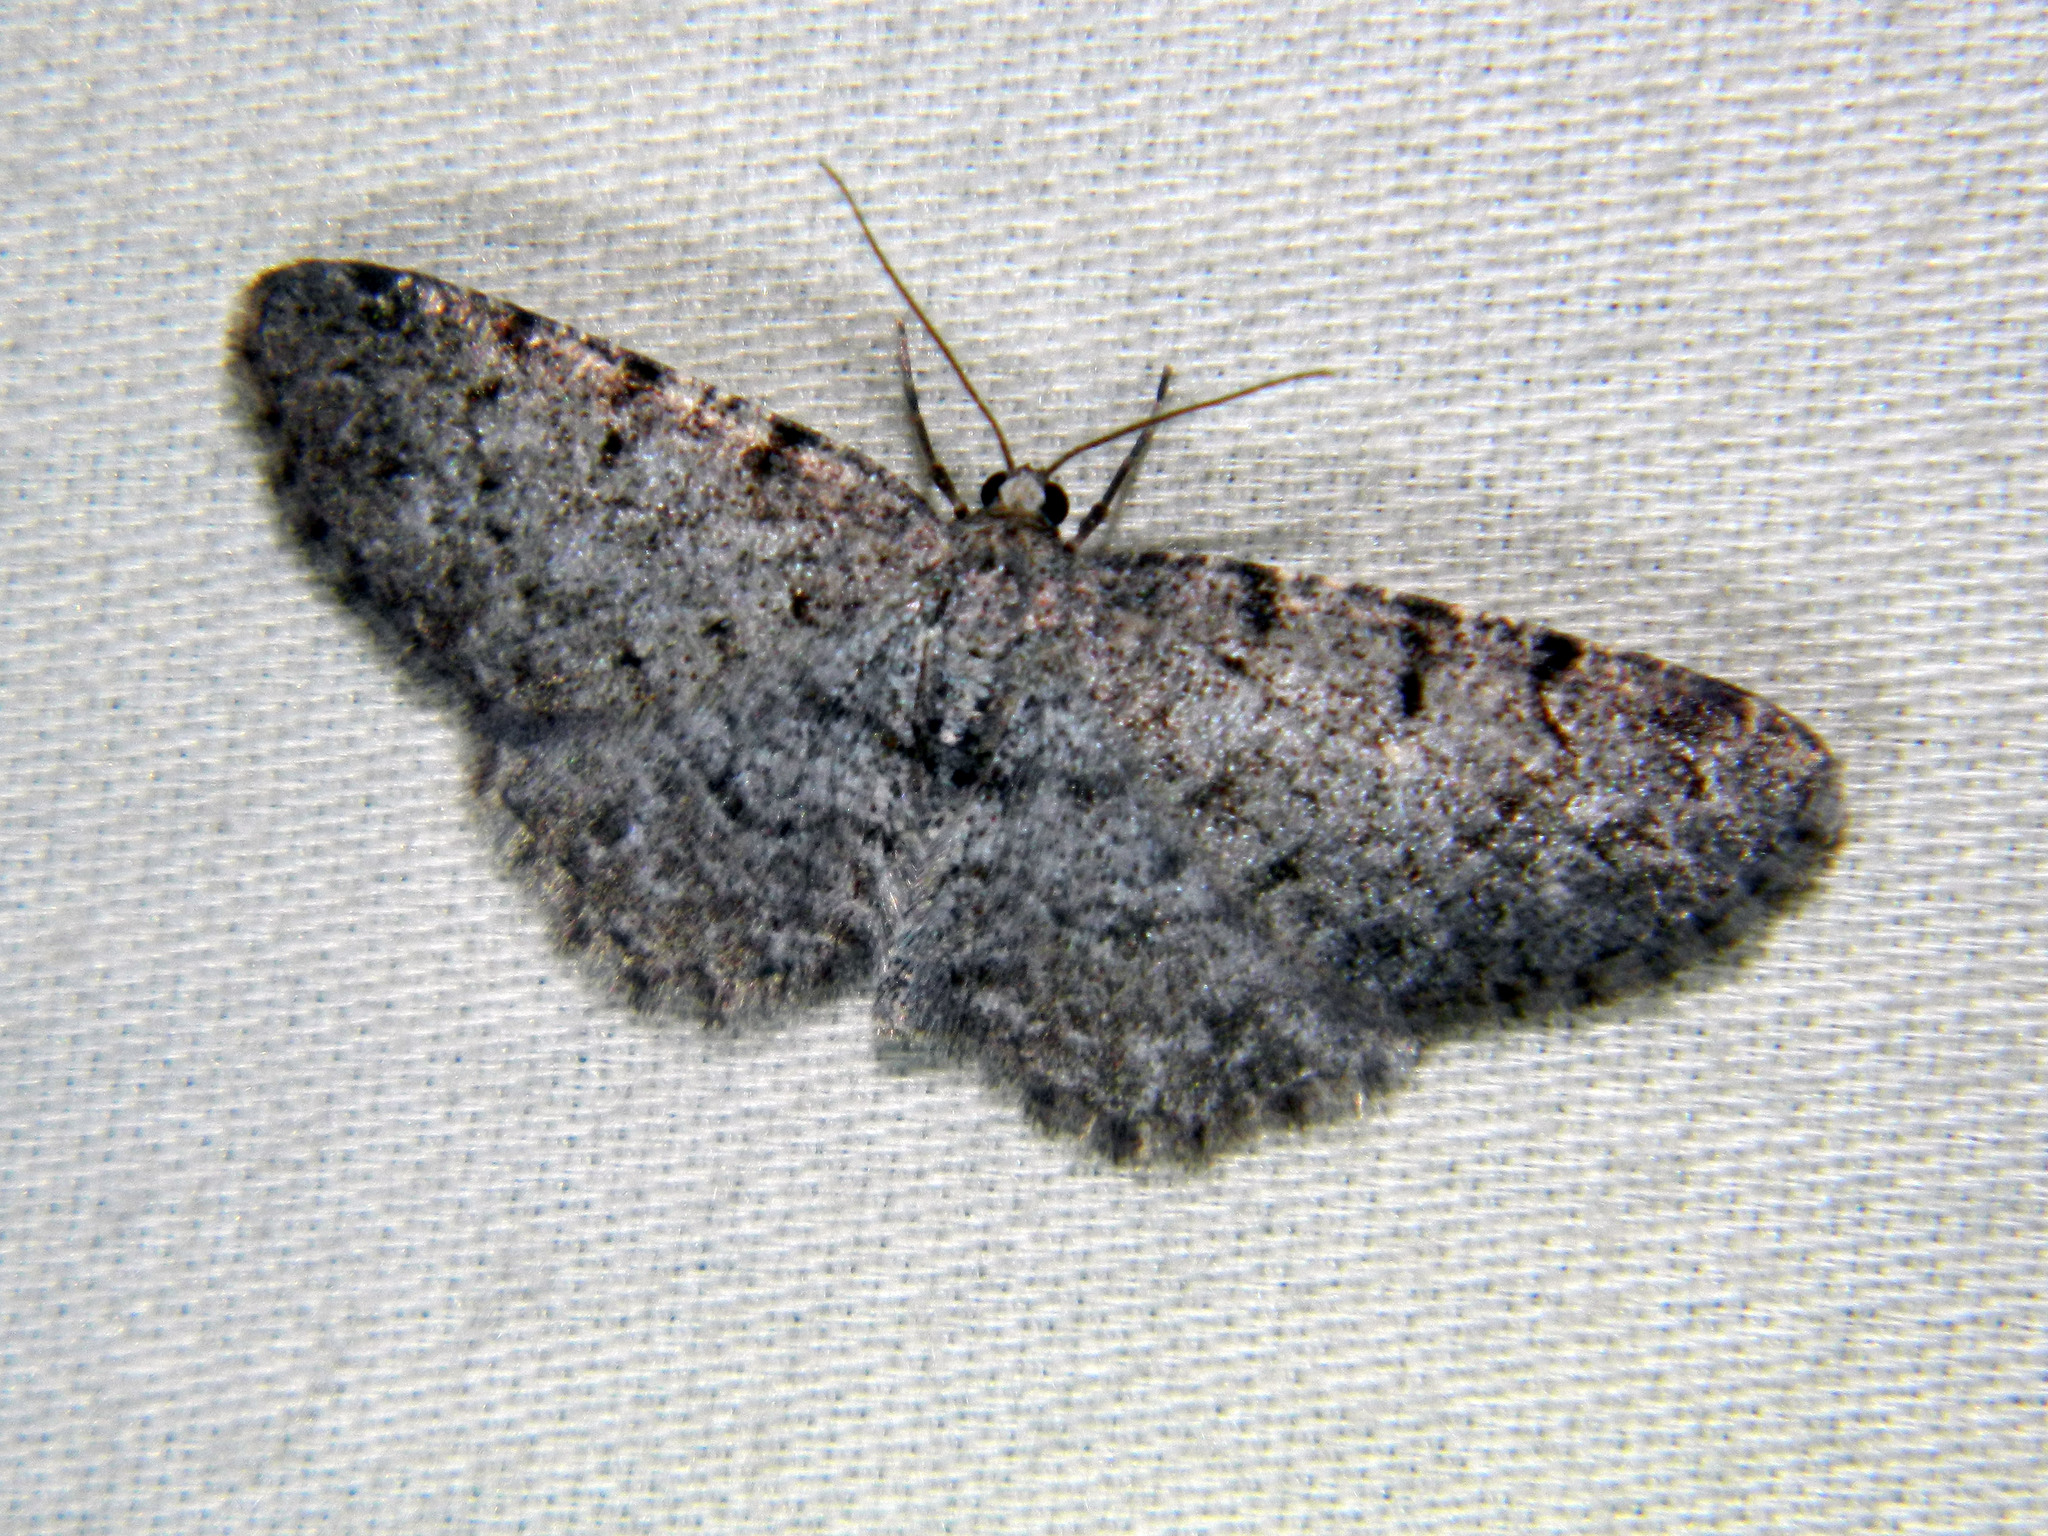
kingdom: Animalia
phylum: Arthropoda
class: Insecta
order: Lepidoptera
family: Geometridae
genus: Aethalura
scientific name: Aethalura intertexta
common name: Four-barred gray
